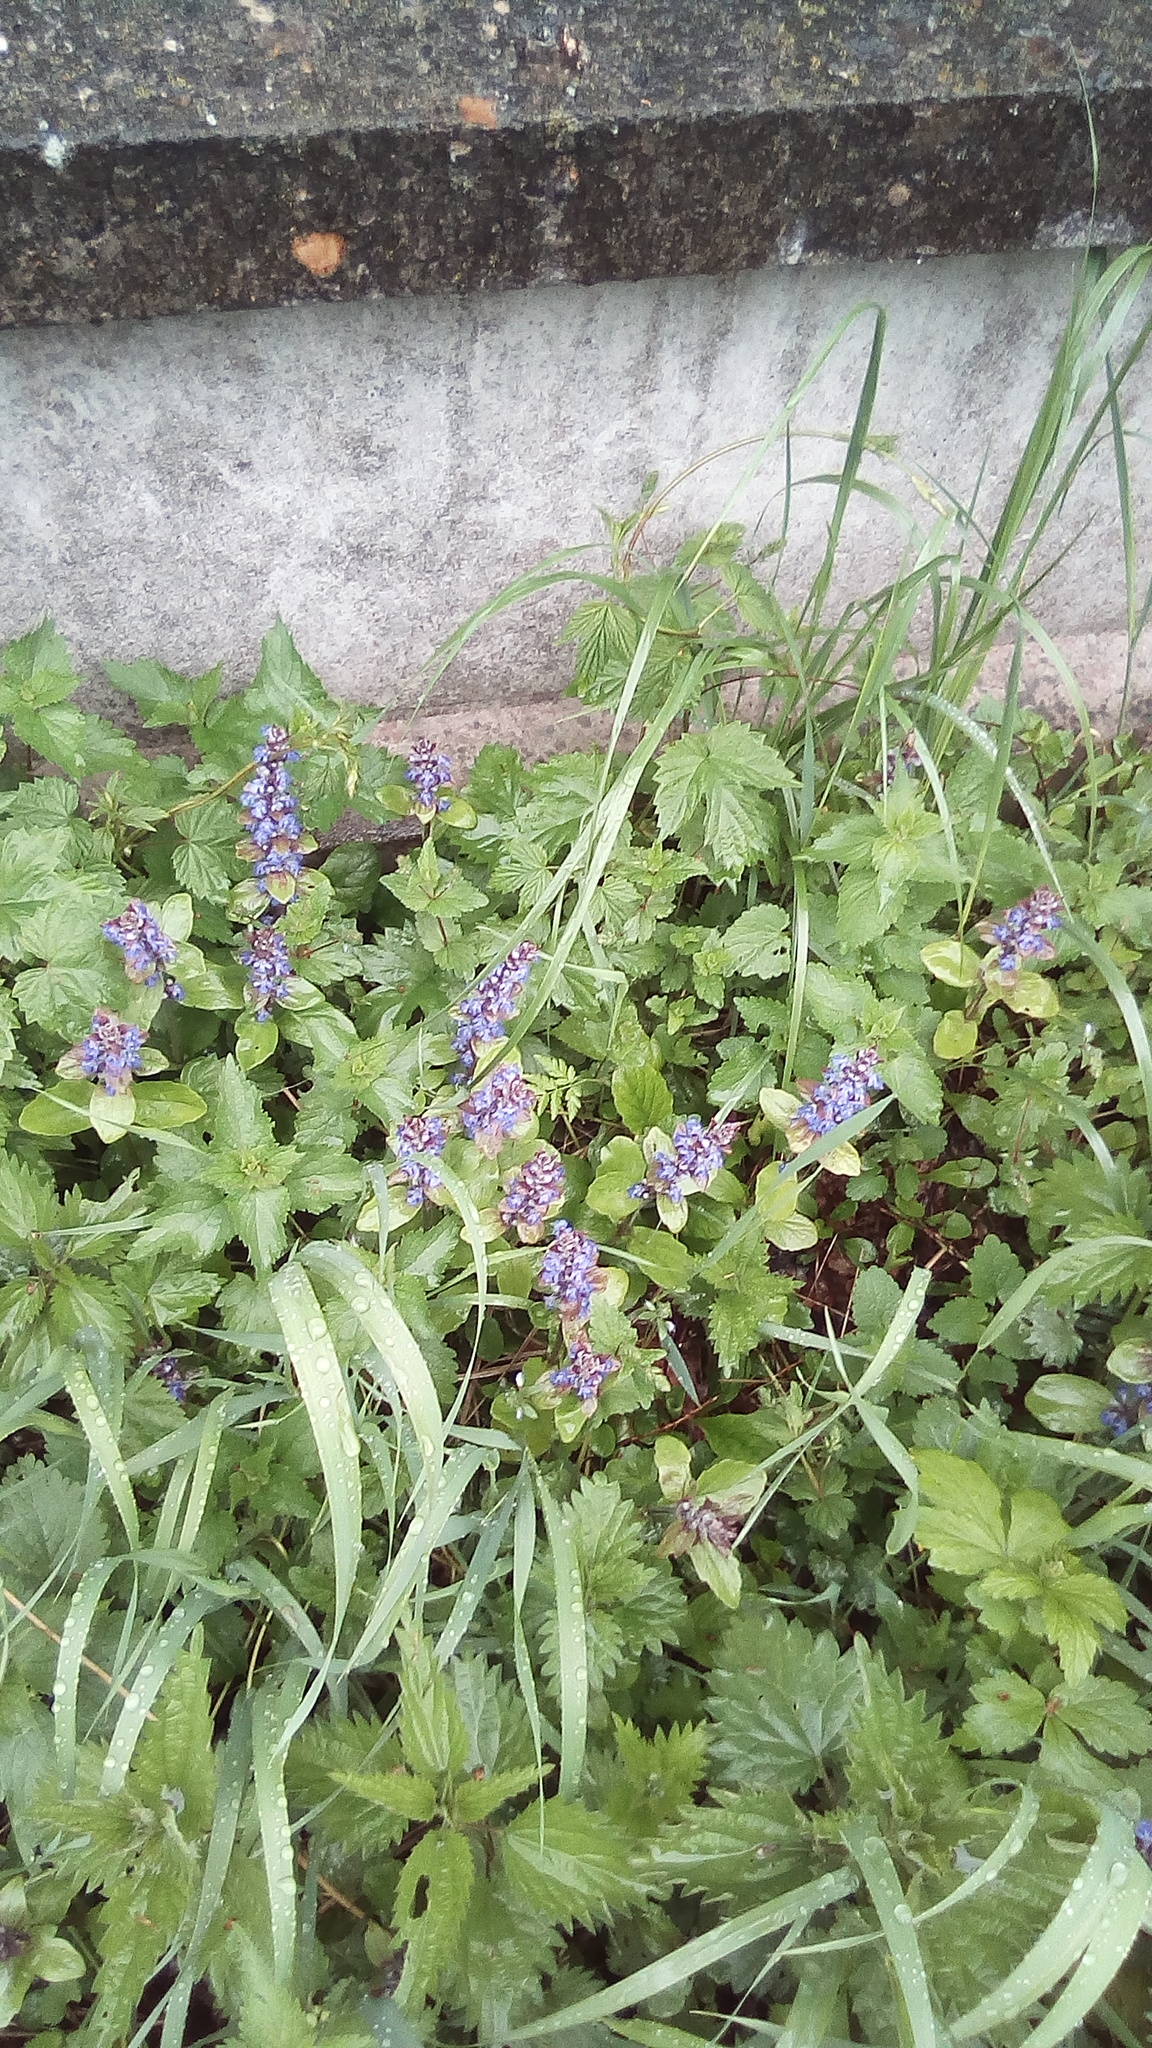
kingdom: Plantae
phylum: Tracheophyta
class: Magnoliopsida
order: Lamiales
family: Lamiaceae
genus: Ajuga
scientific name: Ajuga reptans
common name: Bugle
